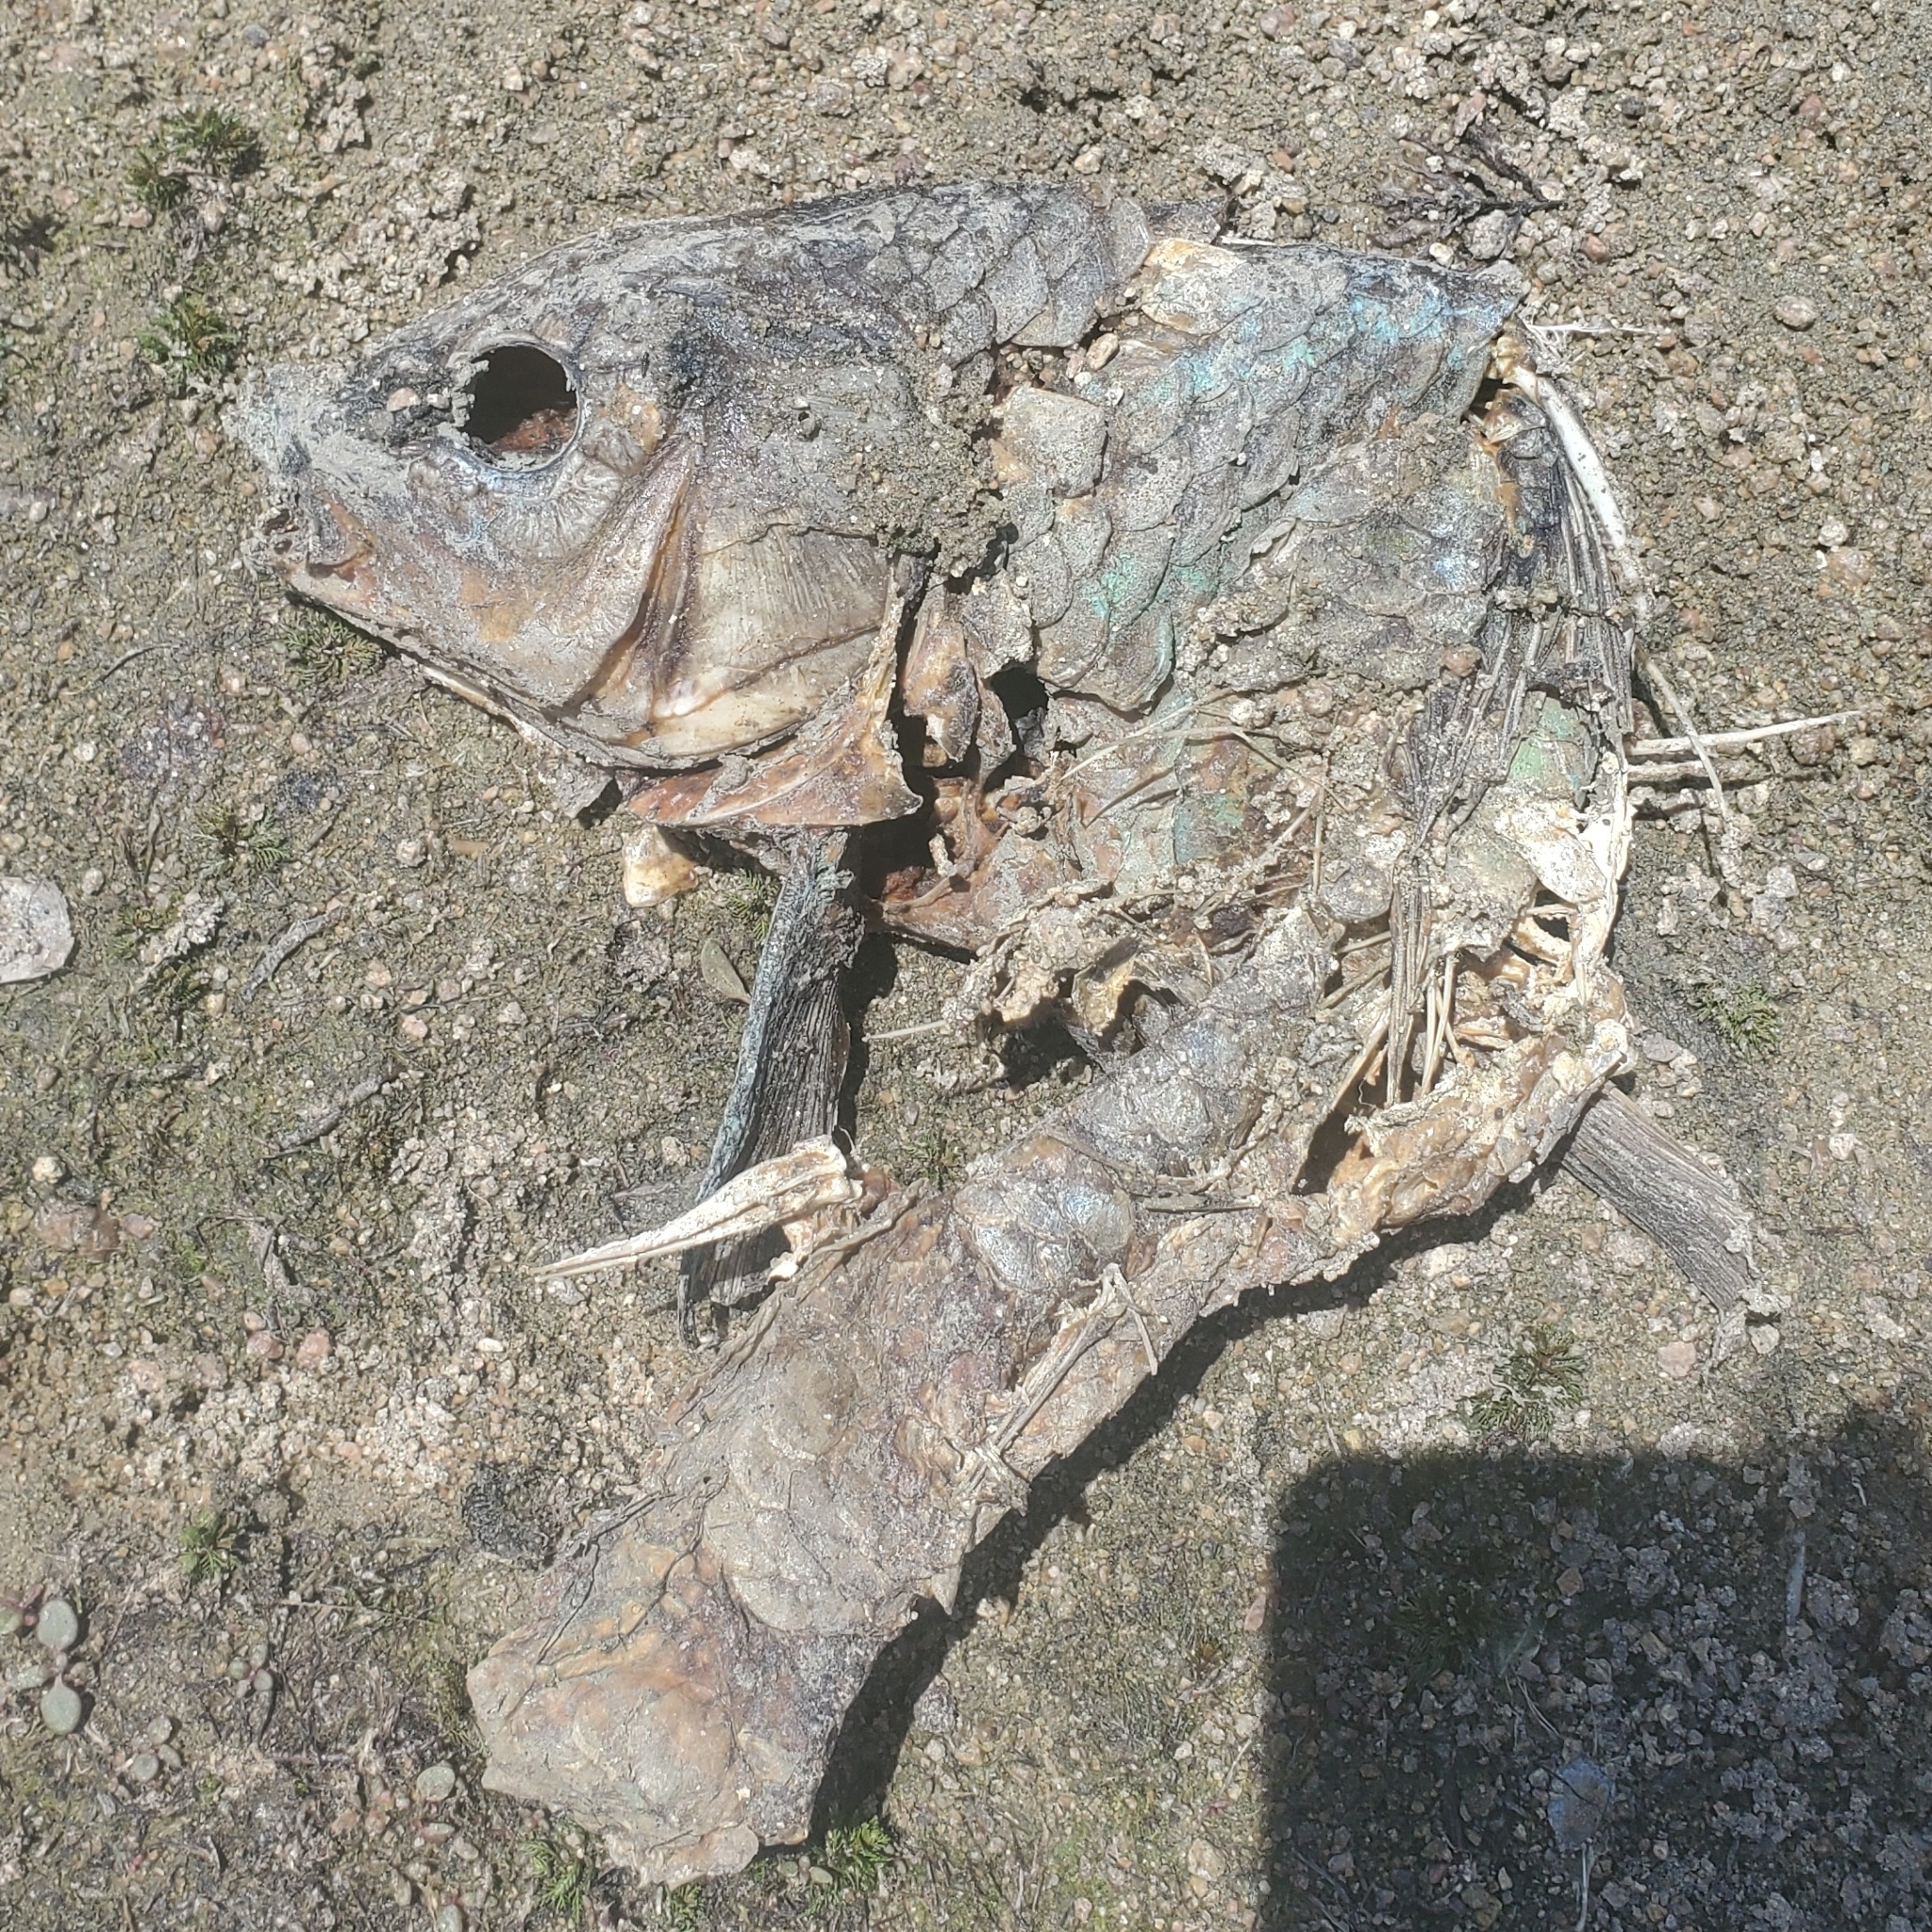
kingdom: Animalia
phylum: Chordata
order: Cypriniformes
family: Cyprinidae
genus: Cyprinus
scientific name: Cyprinus carpio
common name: Common carp
